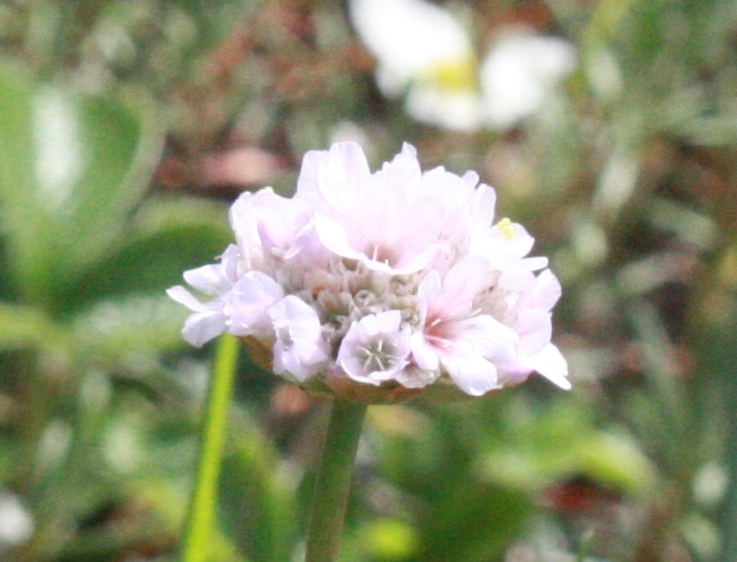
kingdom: Plantae
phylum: Tracheophyta
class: Magnoliopsida
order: Caryophyllales
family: Plumbaginaceae
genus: Armeria
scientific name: Armeria maritima
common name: Thrift
